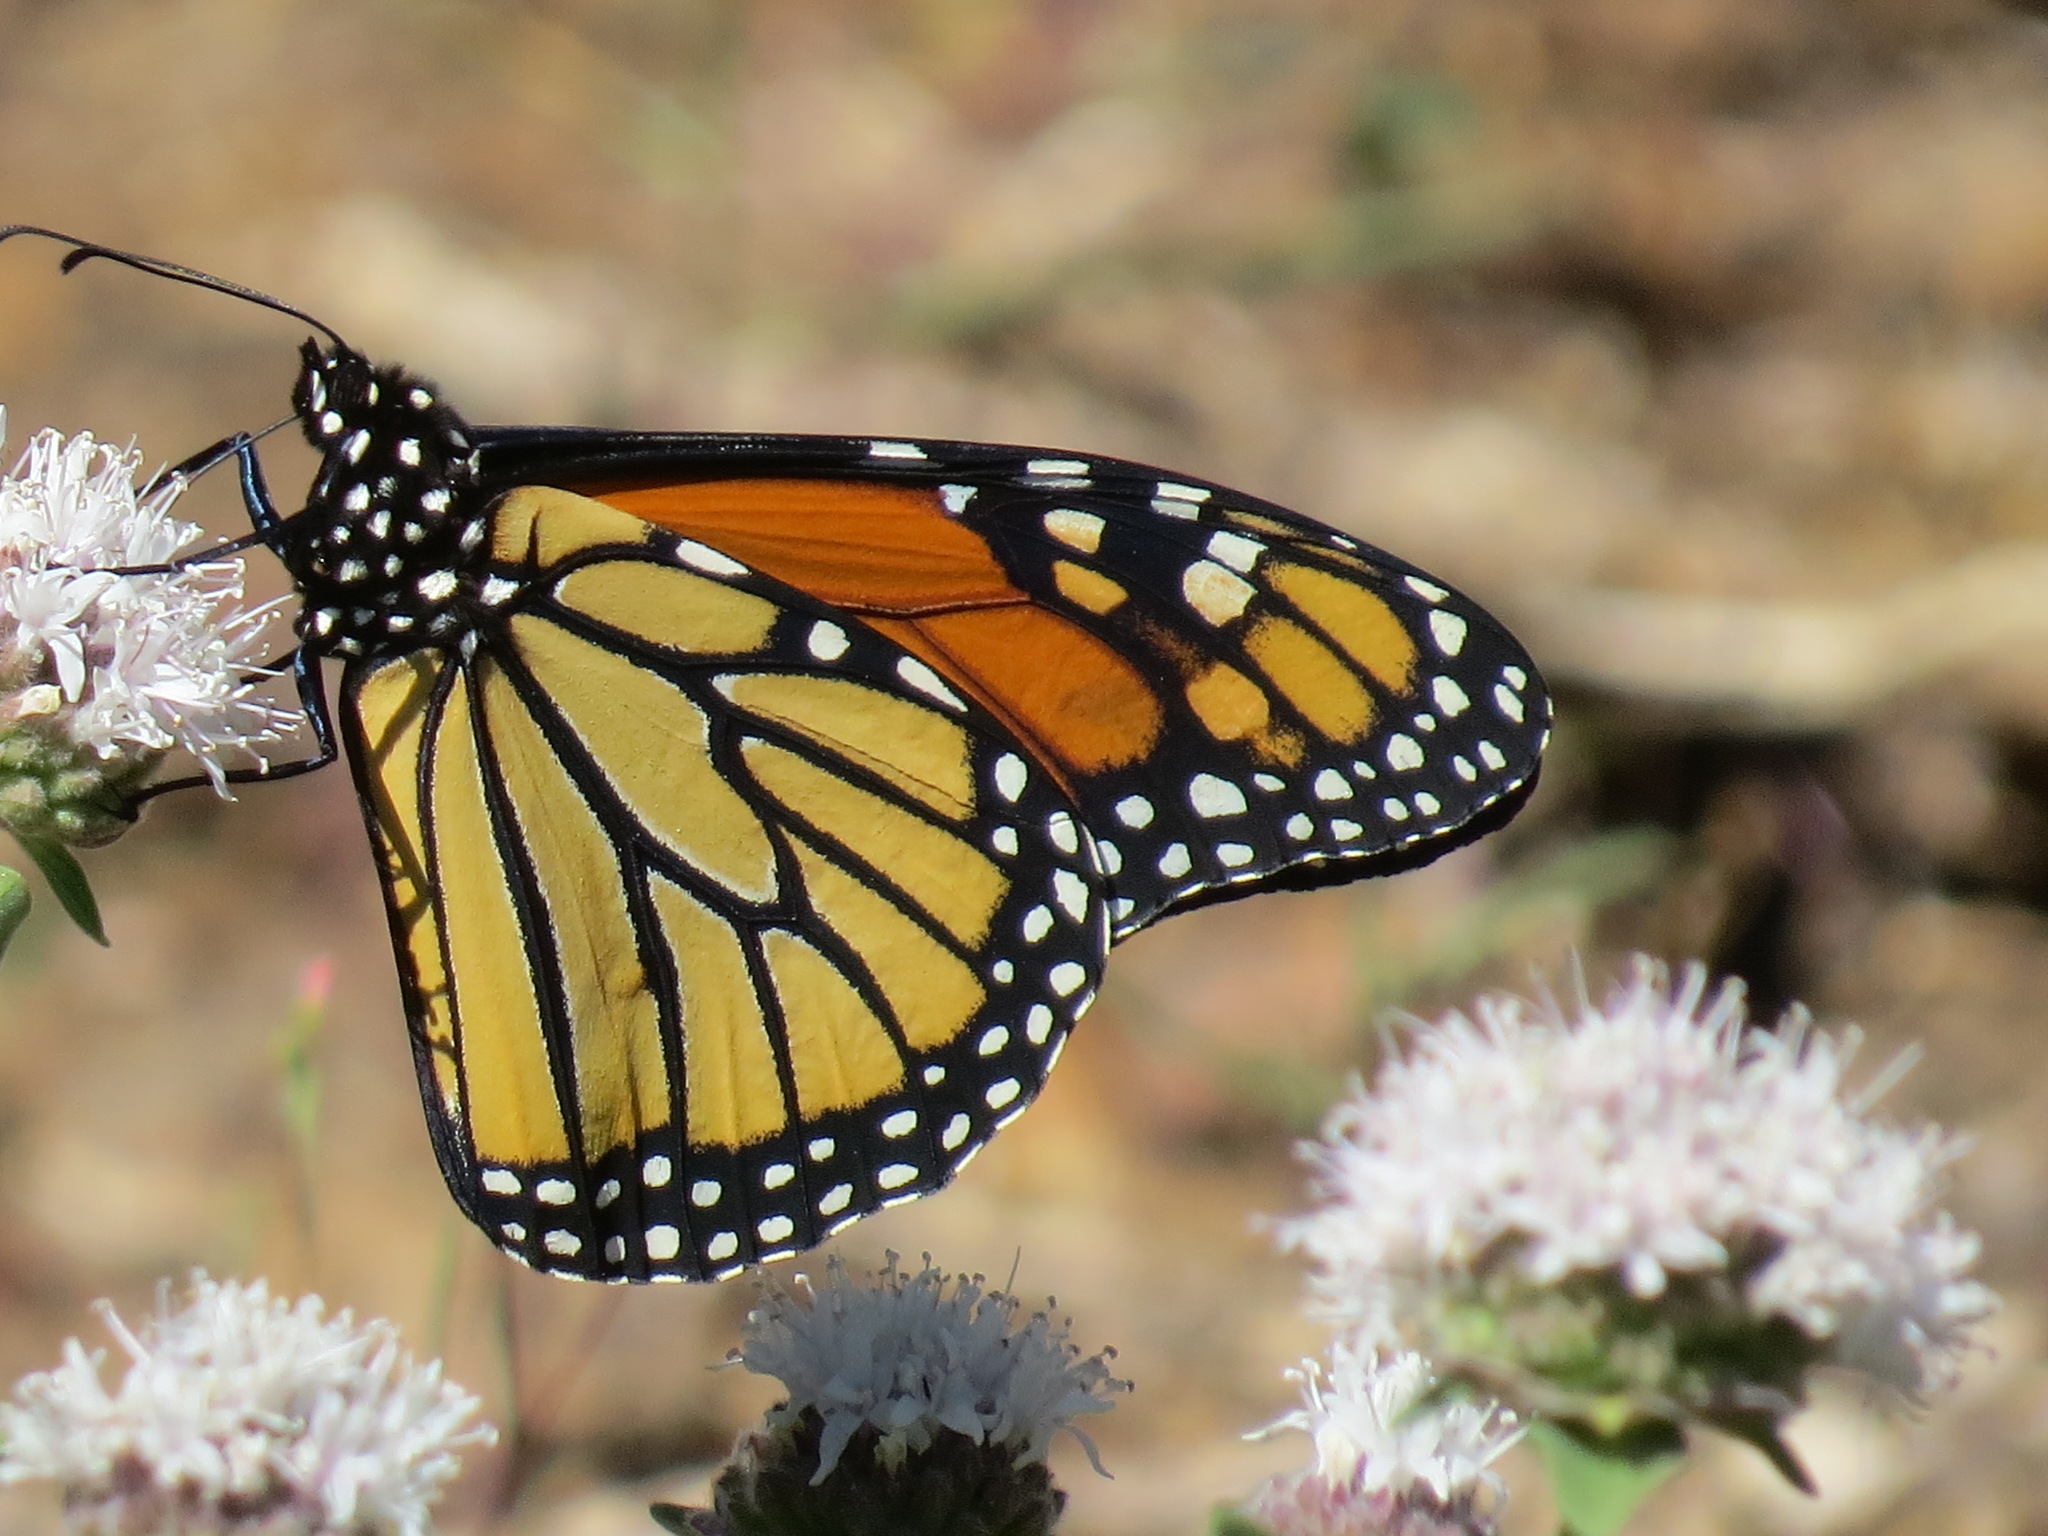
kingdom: Animalia
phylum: Arthropoda
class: Insecta
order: Lepidoptera
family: Nymphalidae
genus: Danaus
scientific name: Danaus plexippus
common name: Monarch
